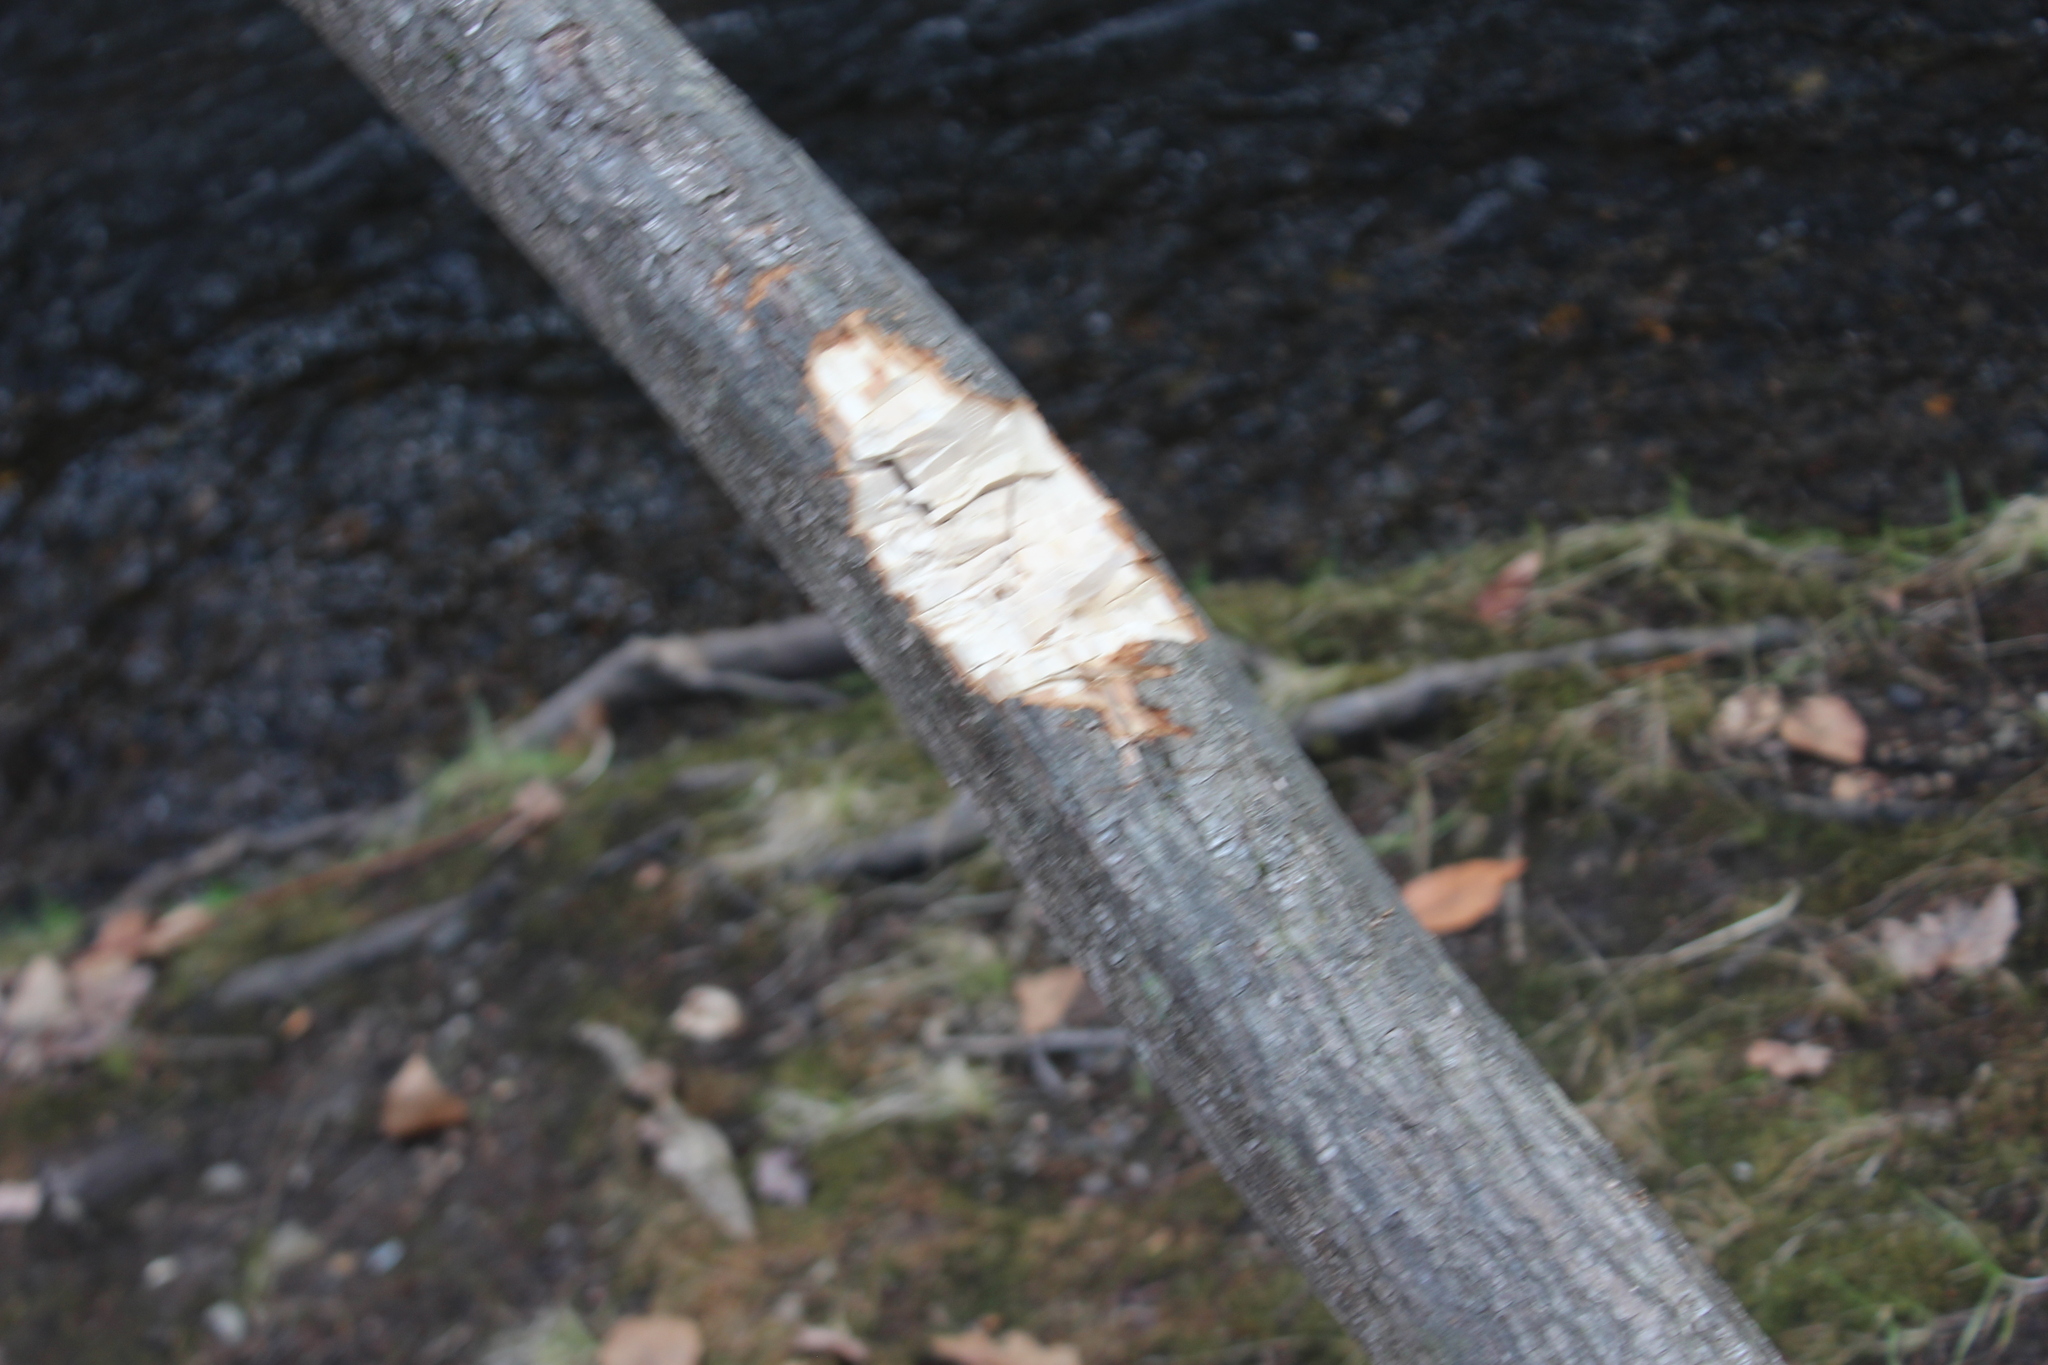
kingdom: Animalia
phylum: Chordata
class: Mammalia
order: Rodentia
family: Castoridae
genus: Castor
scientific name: Castor canadensis
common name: American beaver
